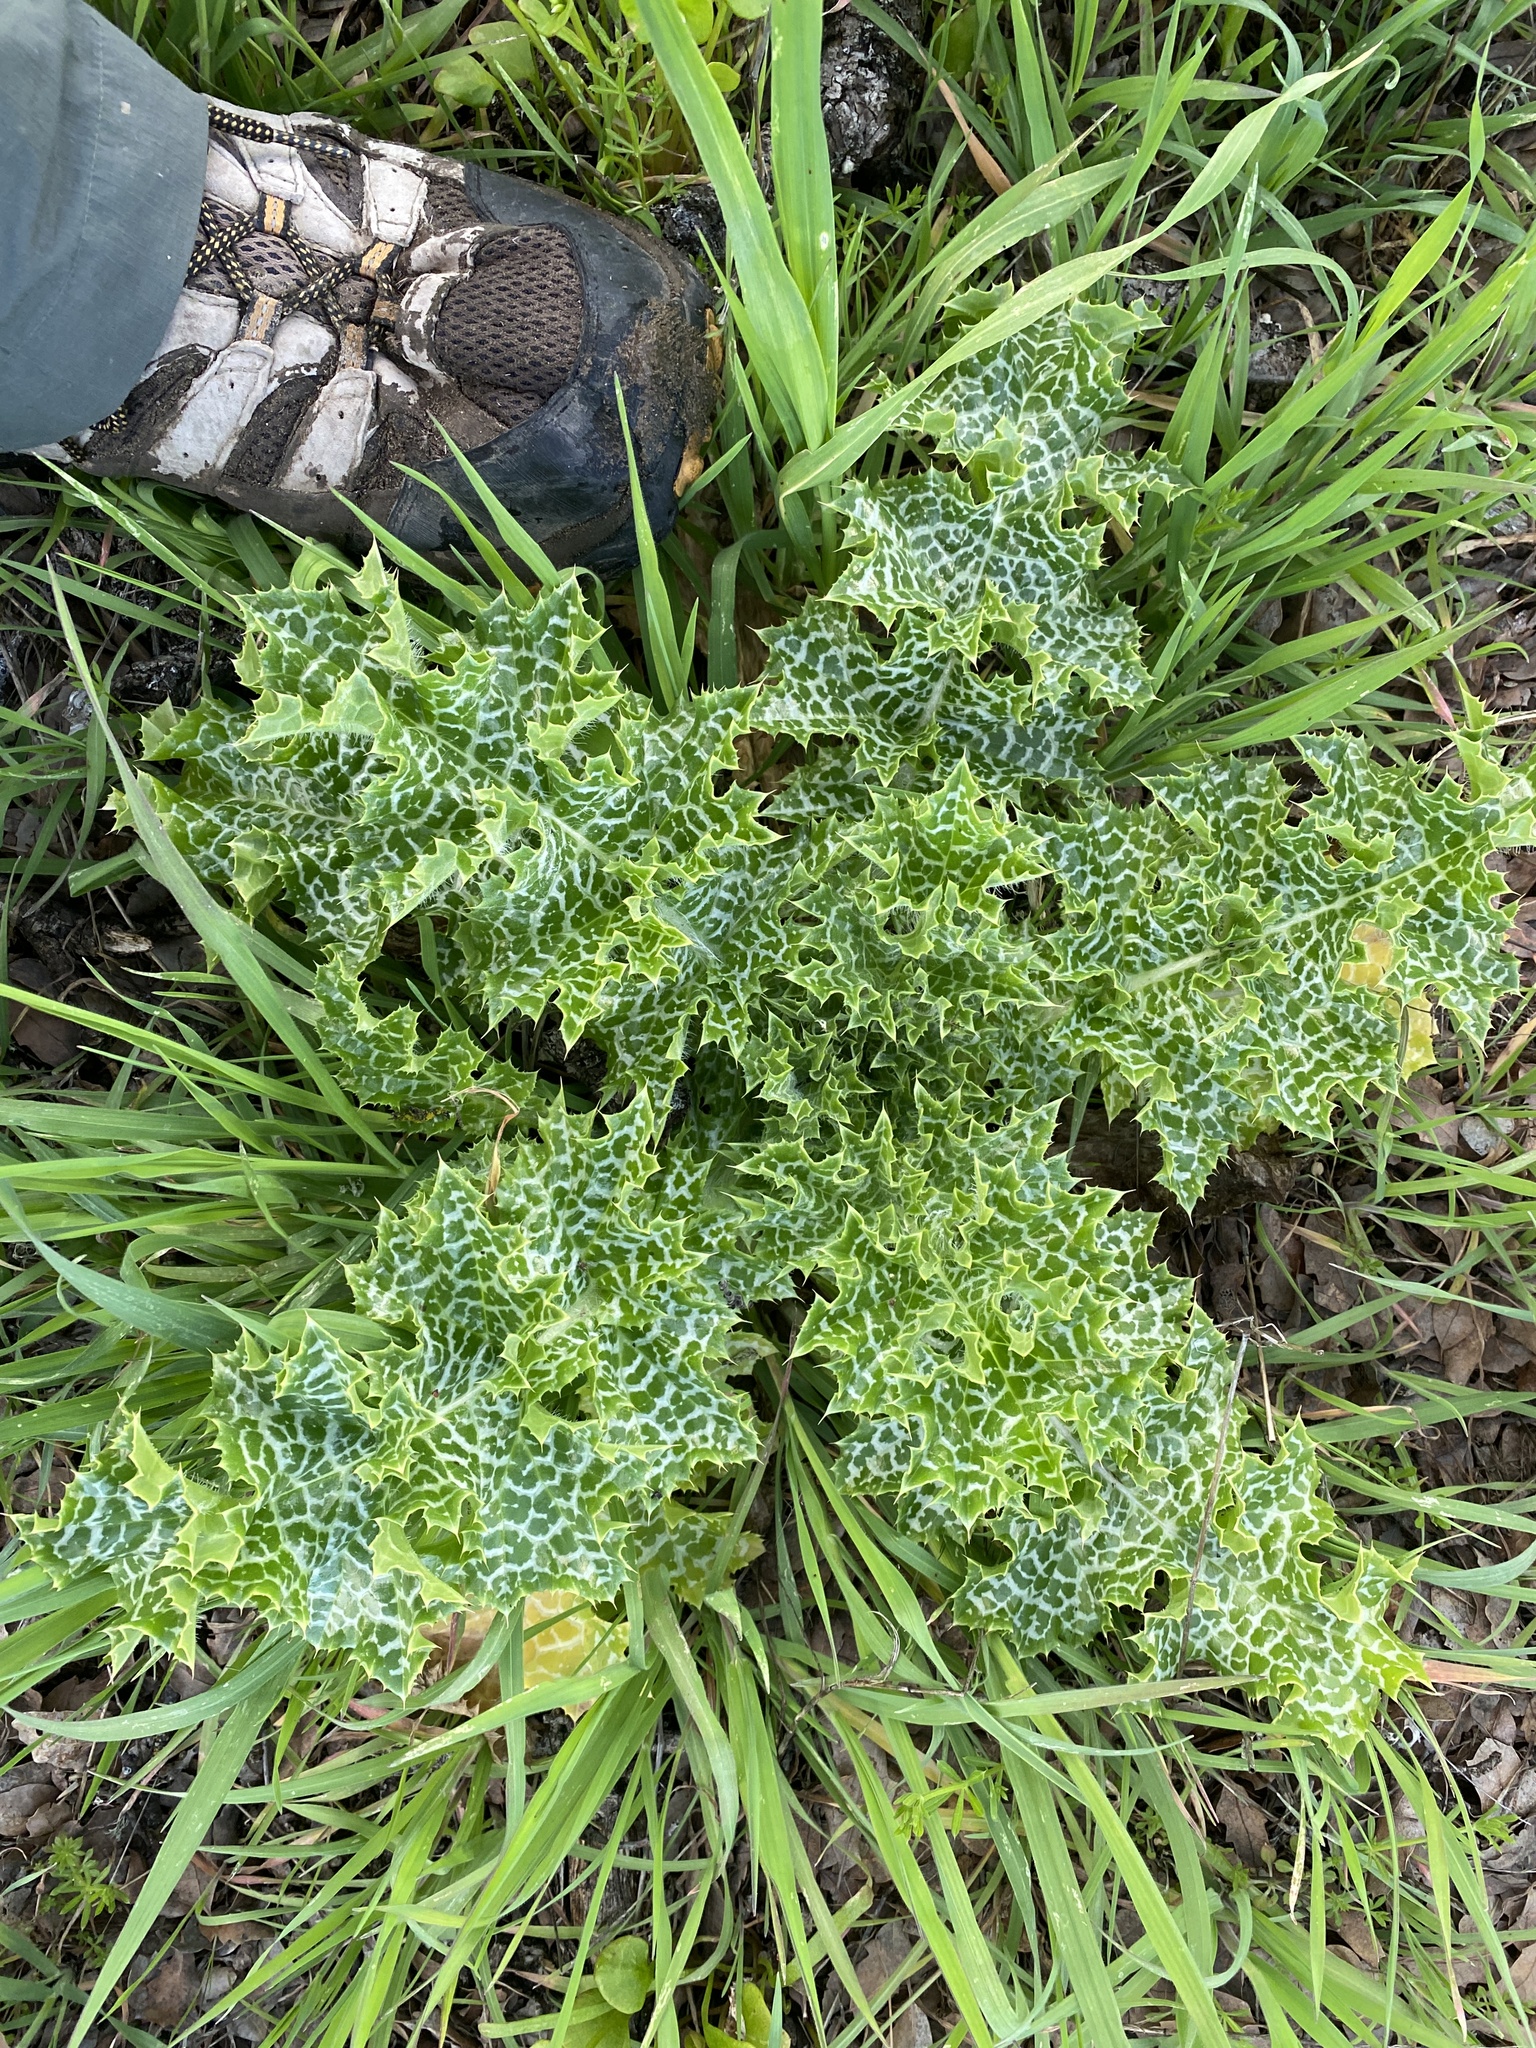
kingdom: Plantae
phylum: Tracheophyta
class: Magnoliopsida
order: Asterales
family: Asteraceae
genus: Silybum
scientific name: Silybum marianum
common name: Milk thistle
